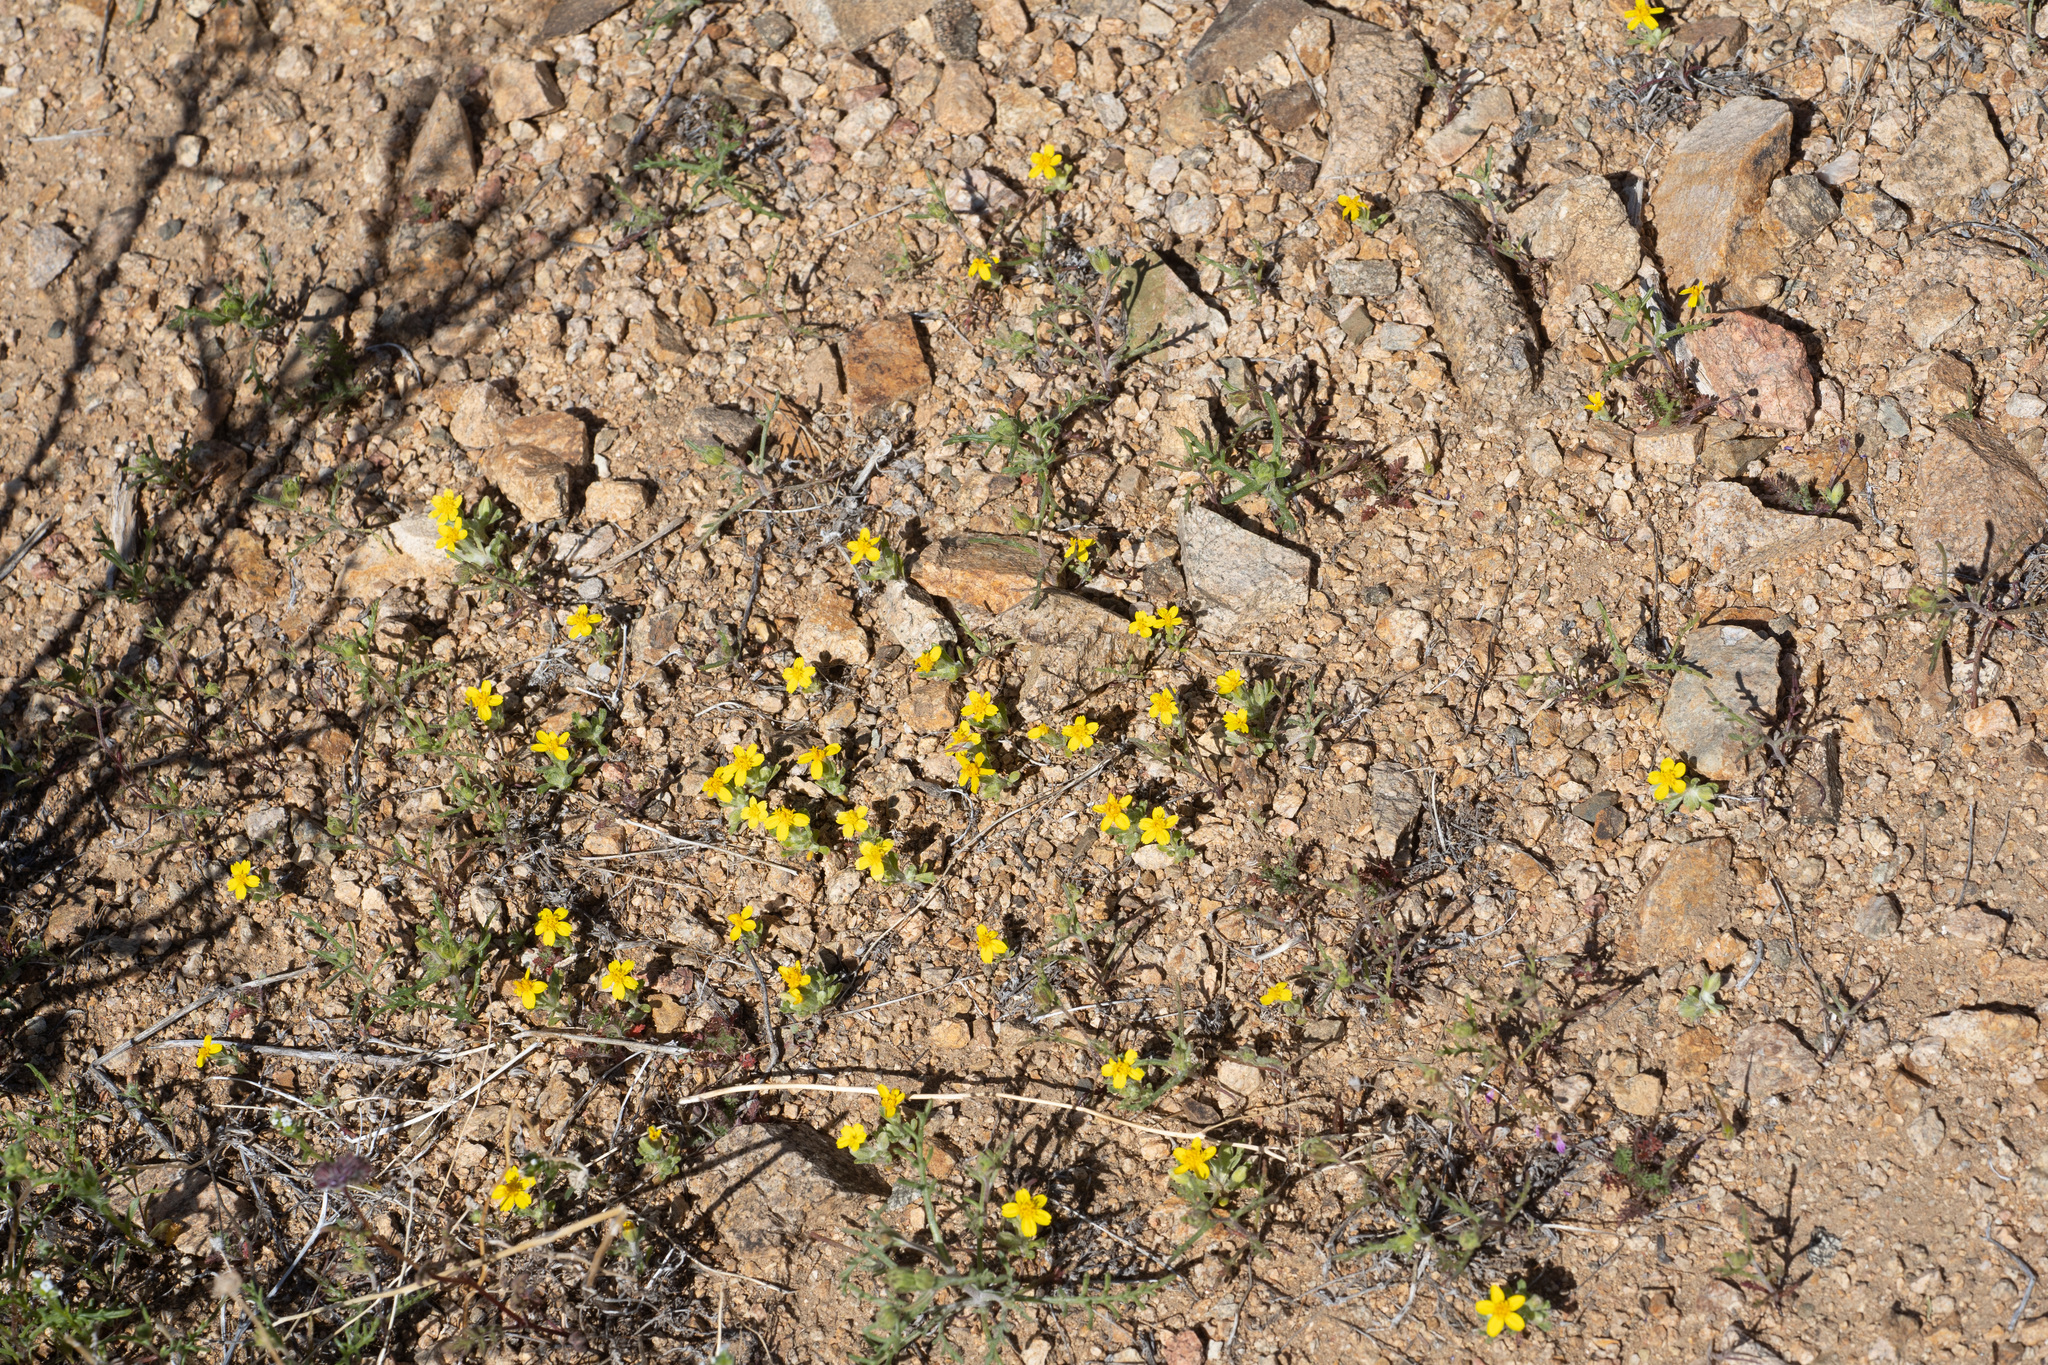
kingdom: Plantae
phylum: Tracheophyta
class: Magnoliopsida
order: Asterales
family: Asteraceae
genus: Syntrichopappus
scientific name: Syntrichopappus fremontii
